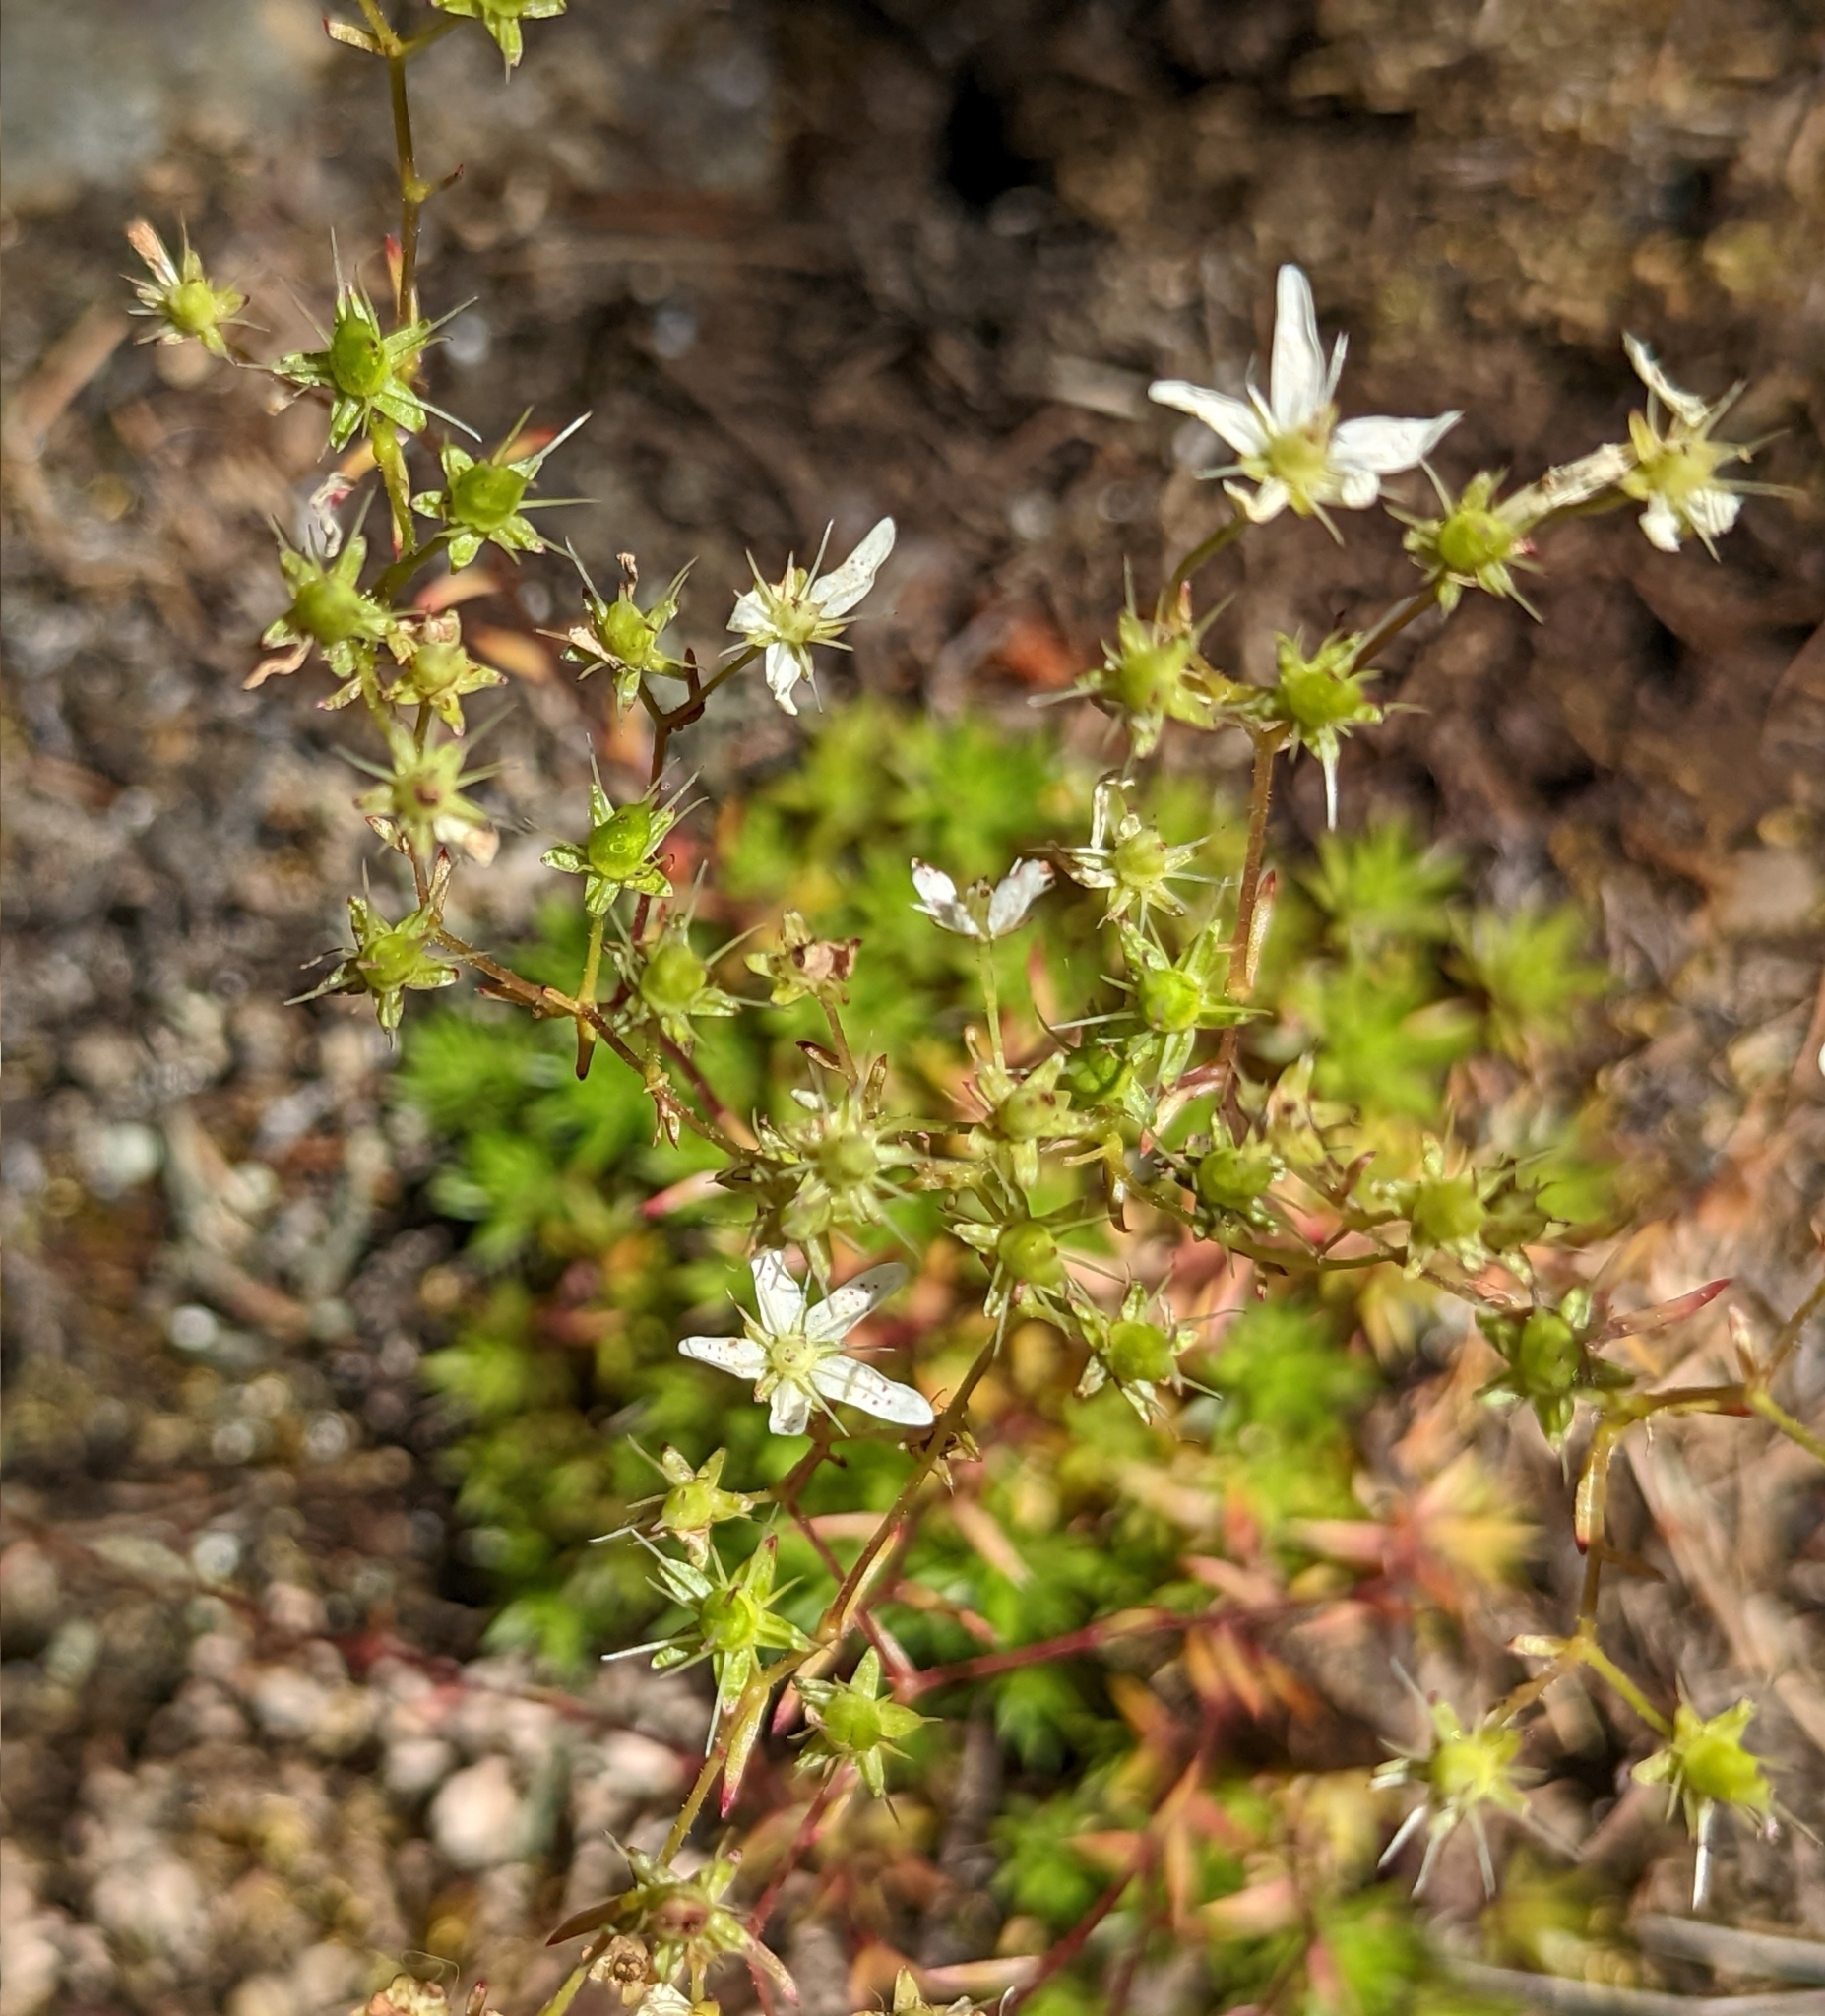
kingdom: Plantae
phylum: Tracheophyta
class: Magnoliopsida
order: Saxifragales
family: Saxifragaceae
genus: Saxifraga
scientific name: Saxifraga bronchialis
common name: Matted saxifrage
